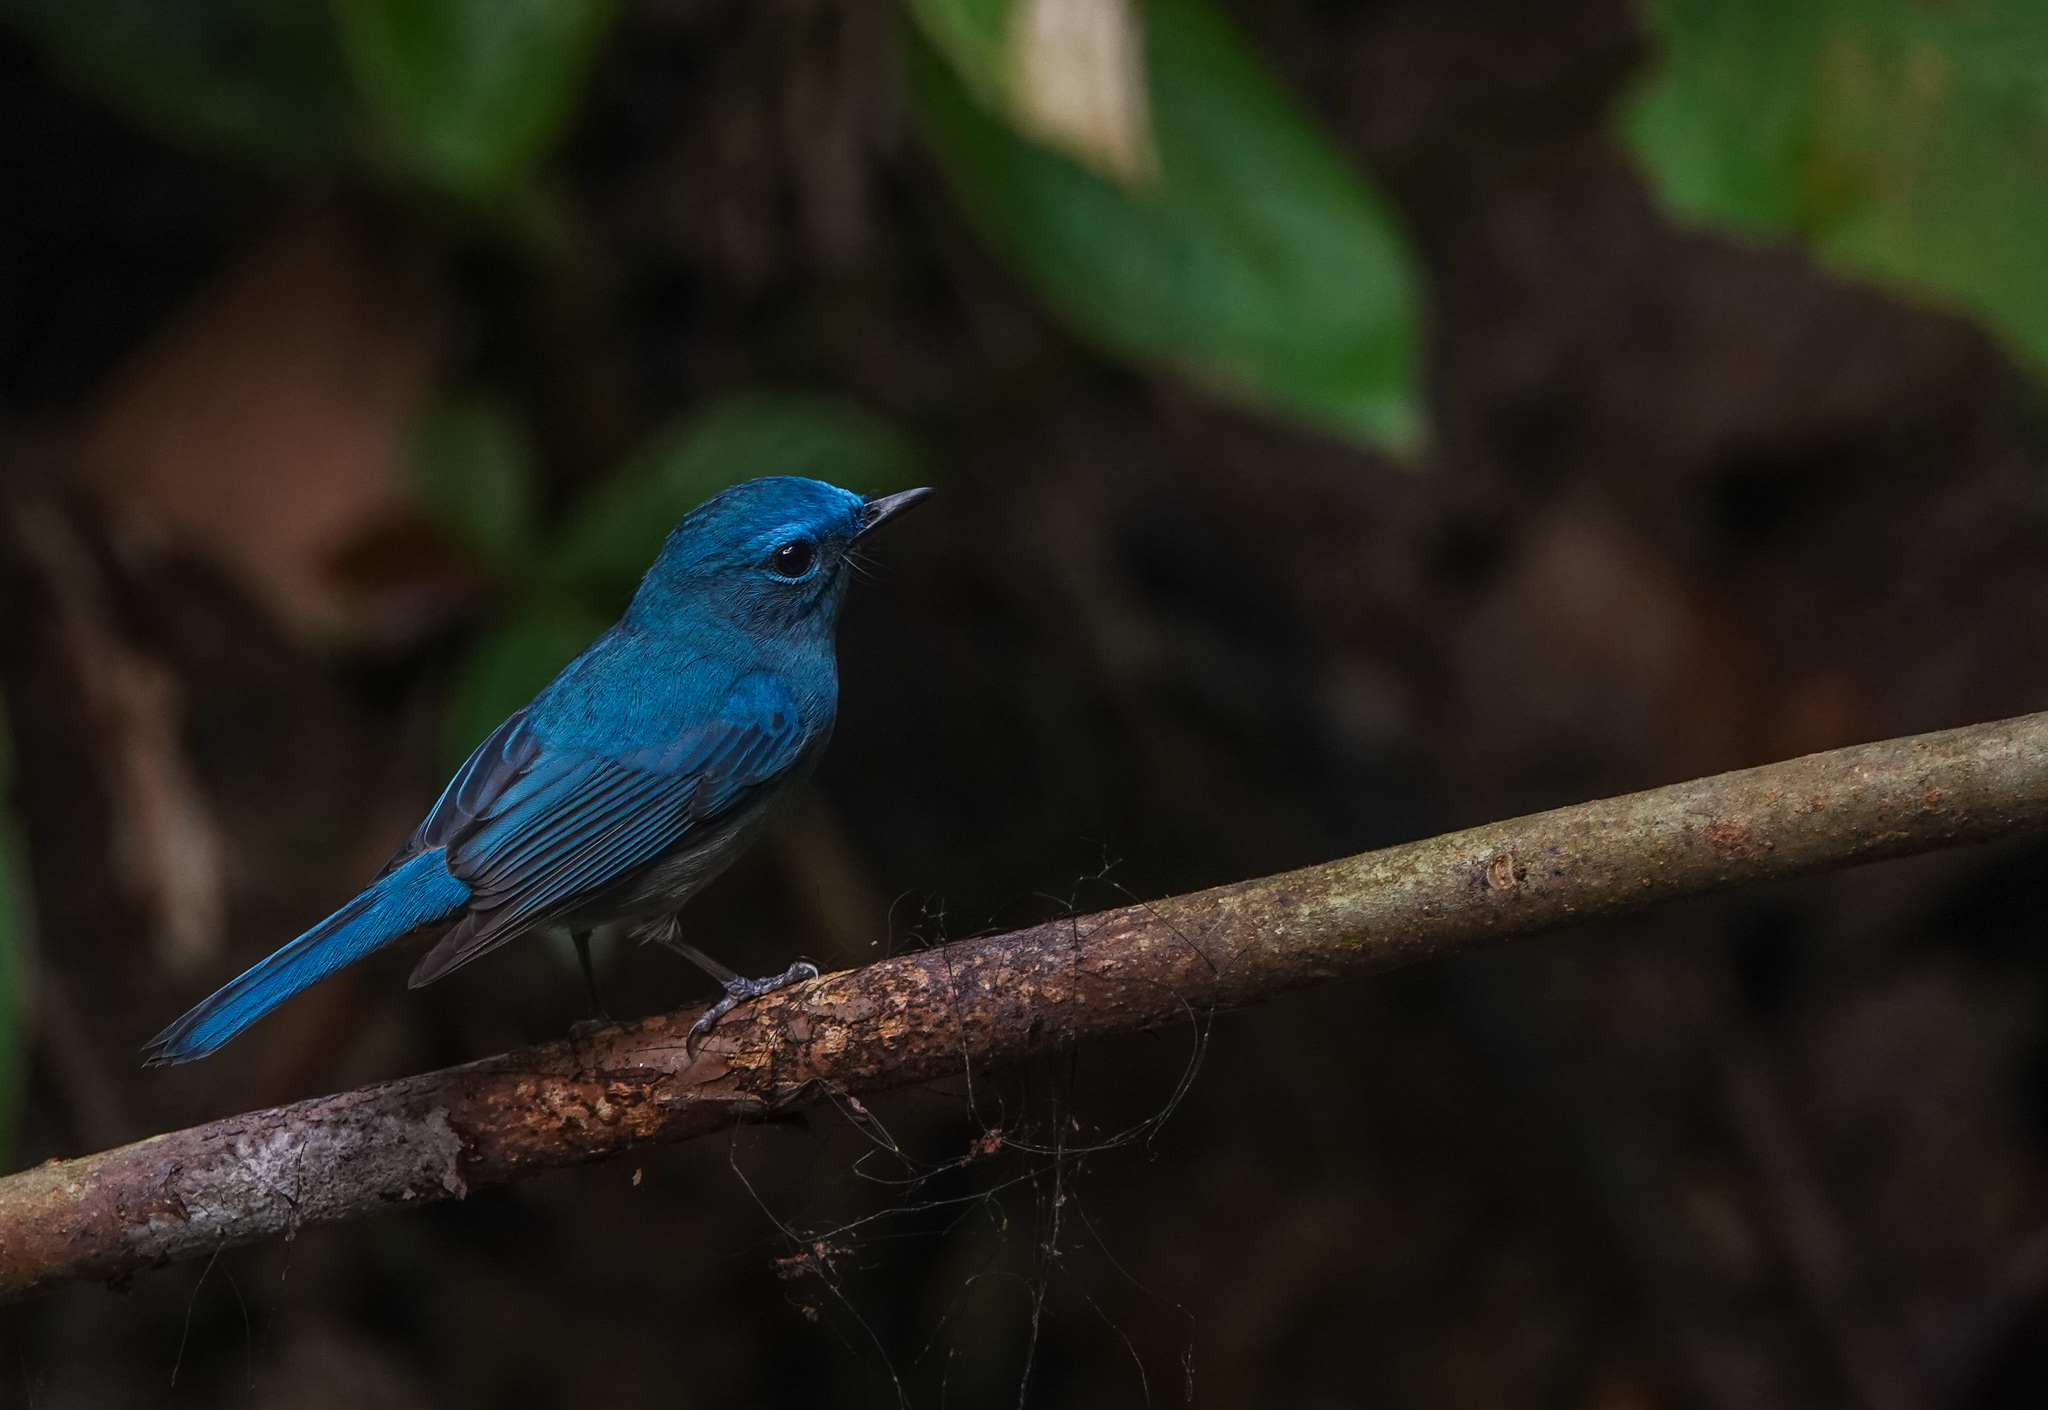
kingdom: Animalia
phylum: Chordata
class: Aves
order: Passeriformes
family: Muscicapidae
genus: Cyornis
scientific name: Cyornis unicolor
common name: Pale blue flycatcher
